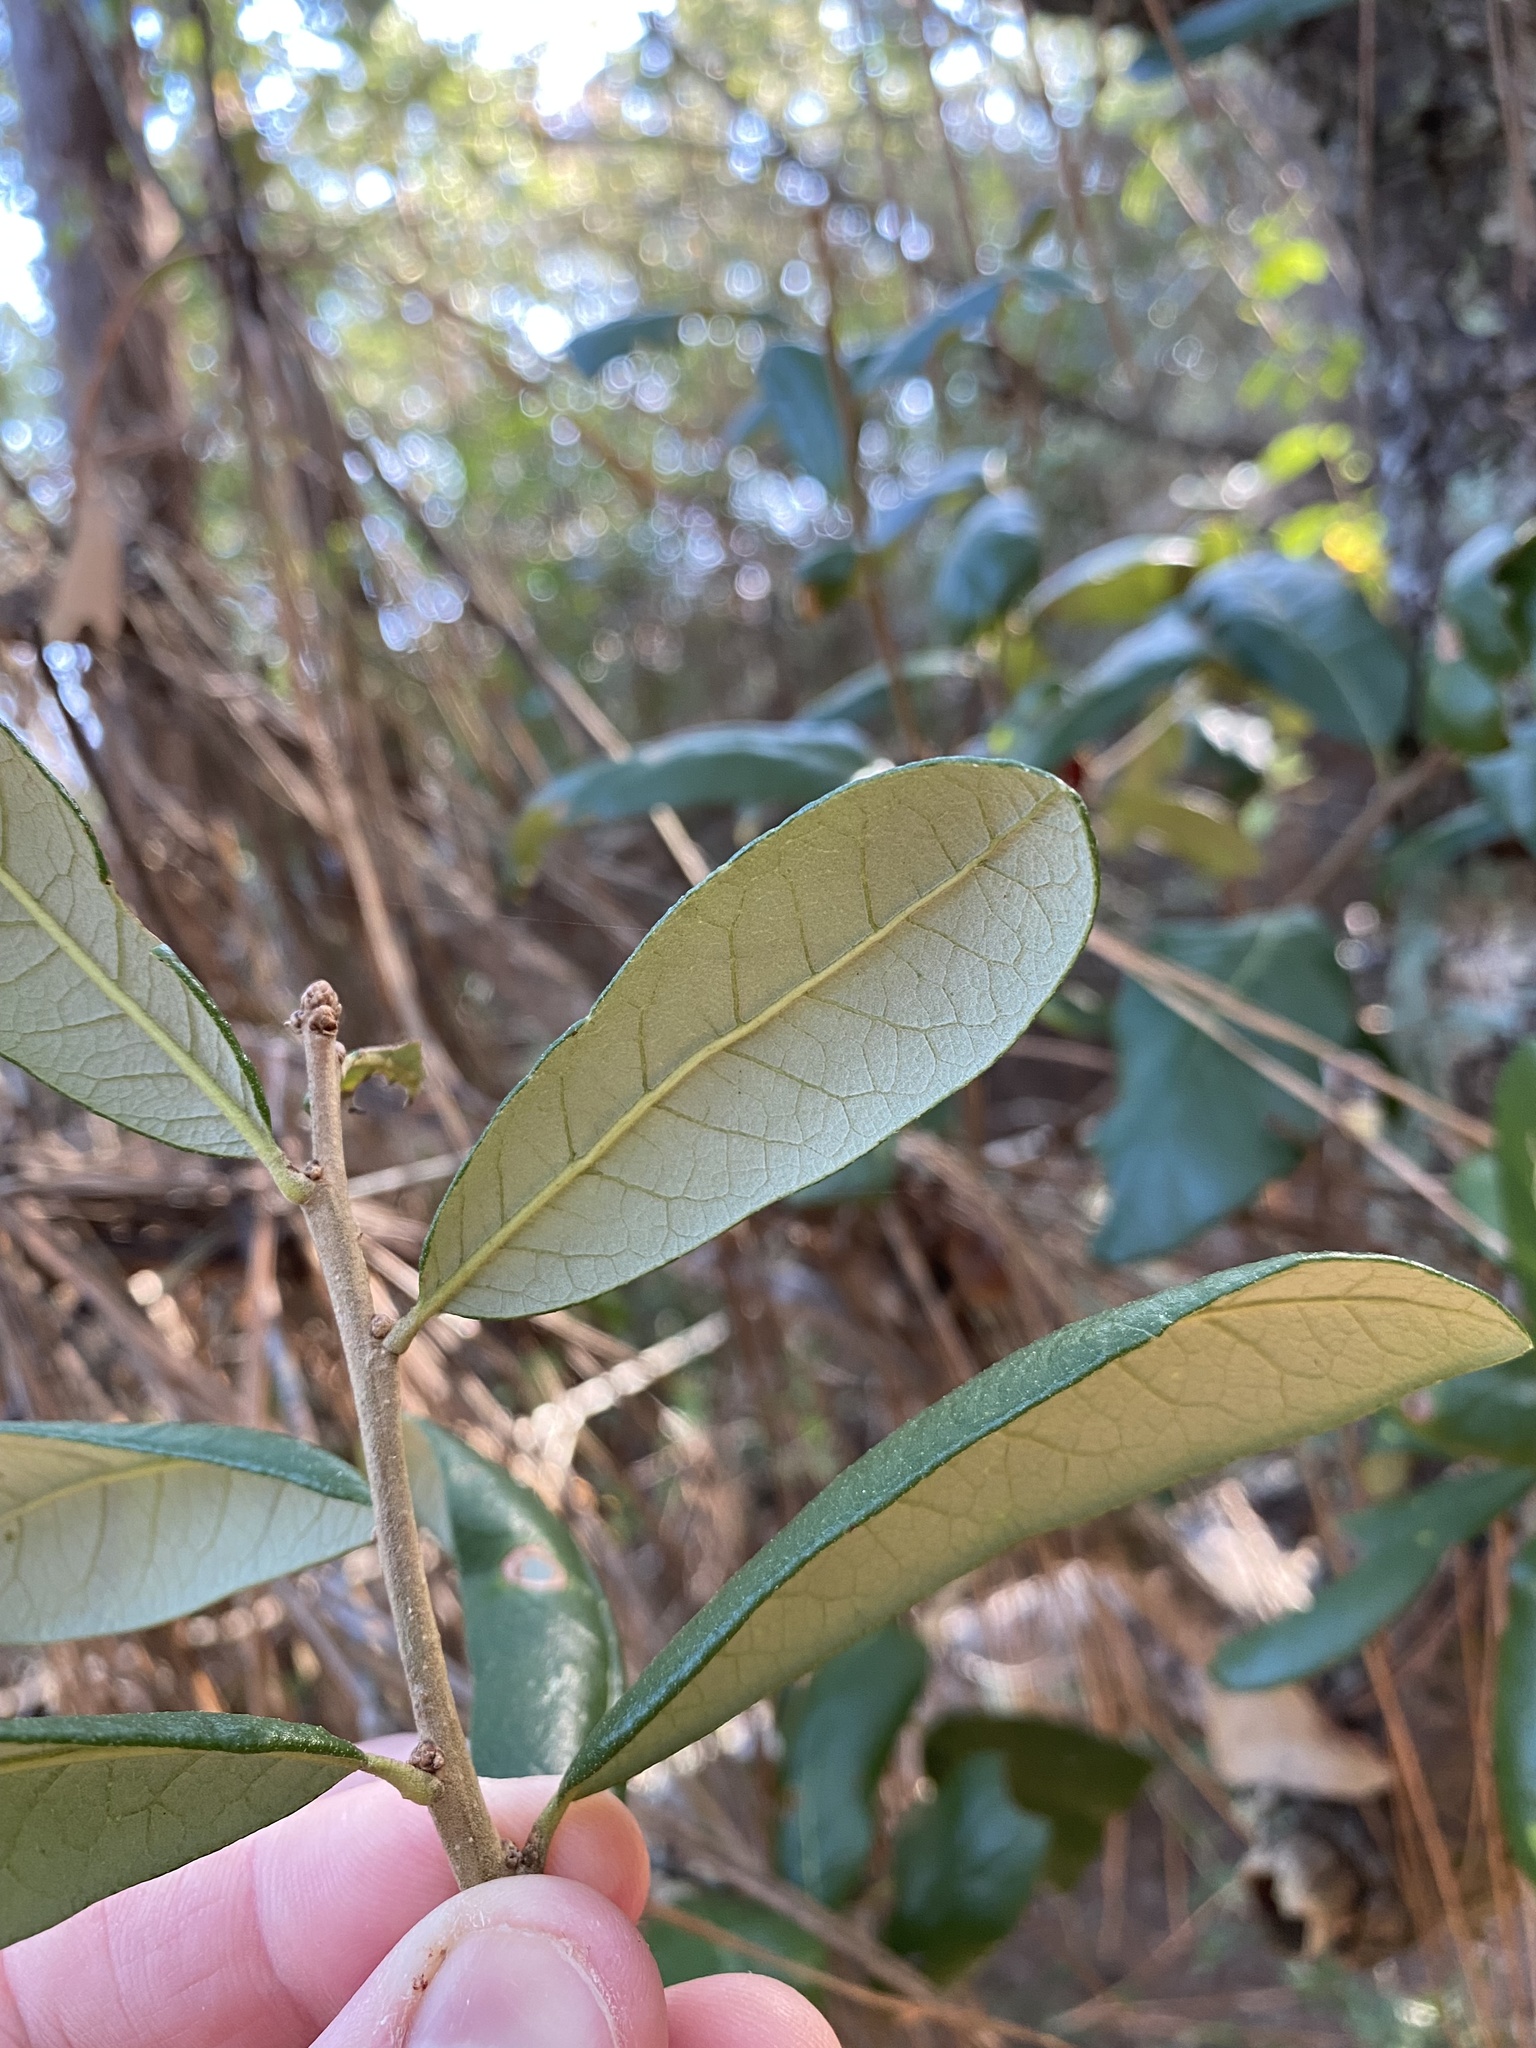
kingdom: Plantae
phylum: Tracheophyta
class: Magnoliopsida
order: Fagales
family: Fagaceae
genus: Quercus
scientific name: Quercus geminata
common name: Sand live oak
